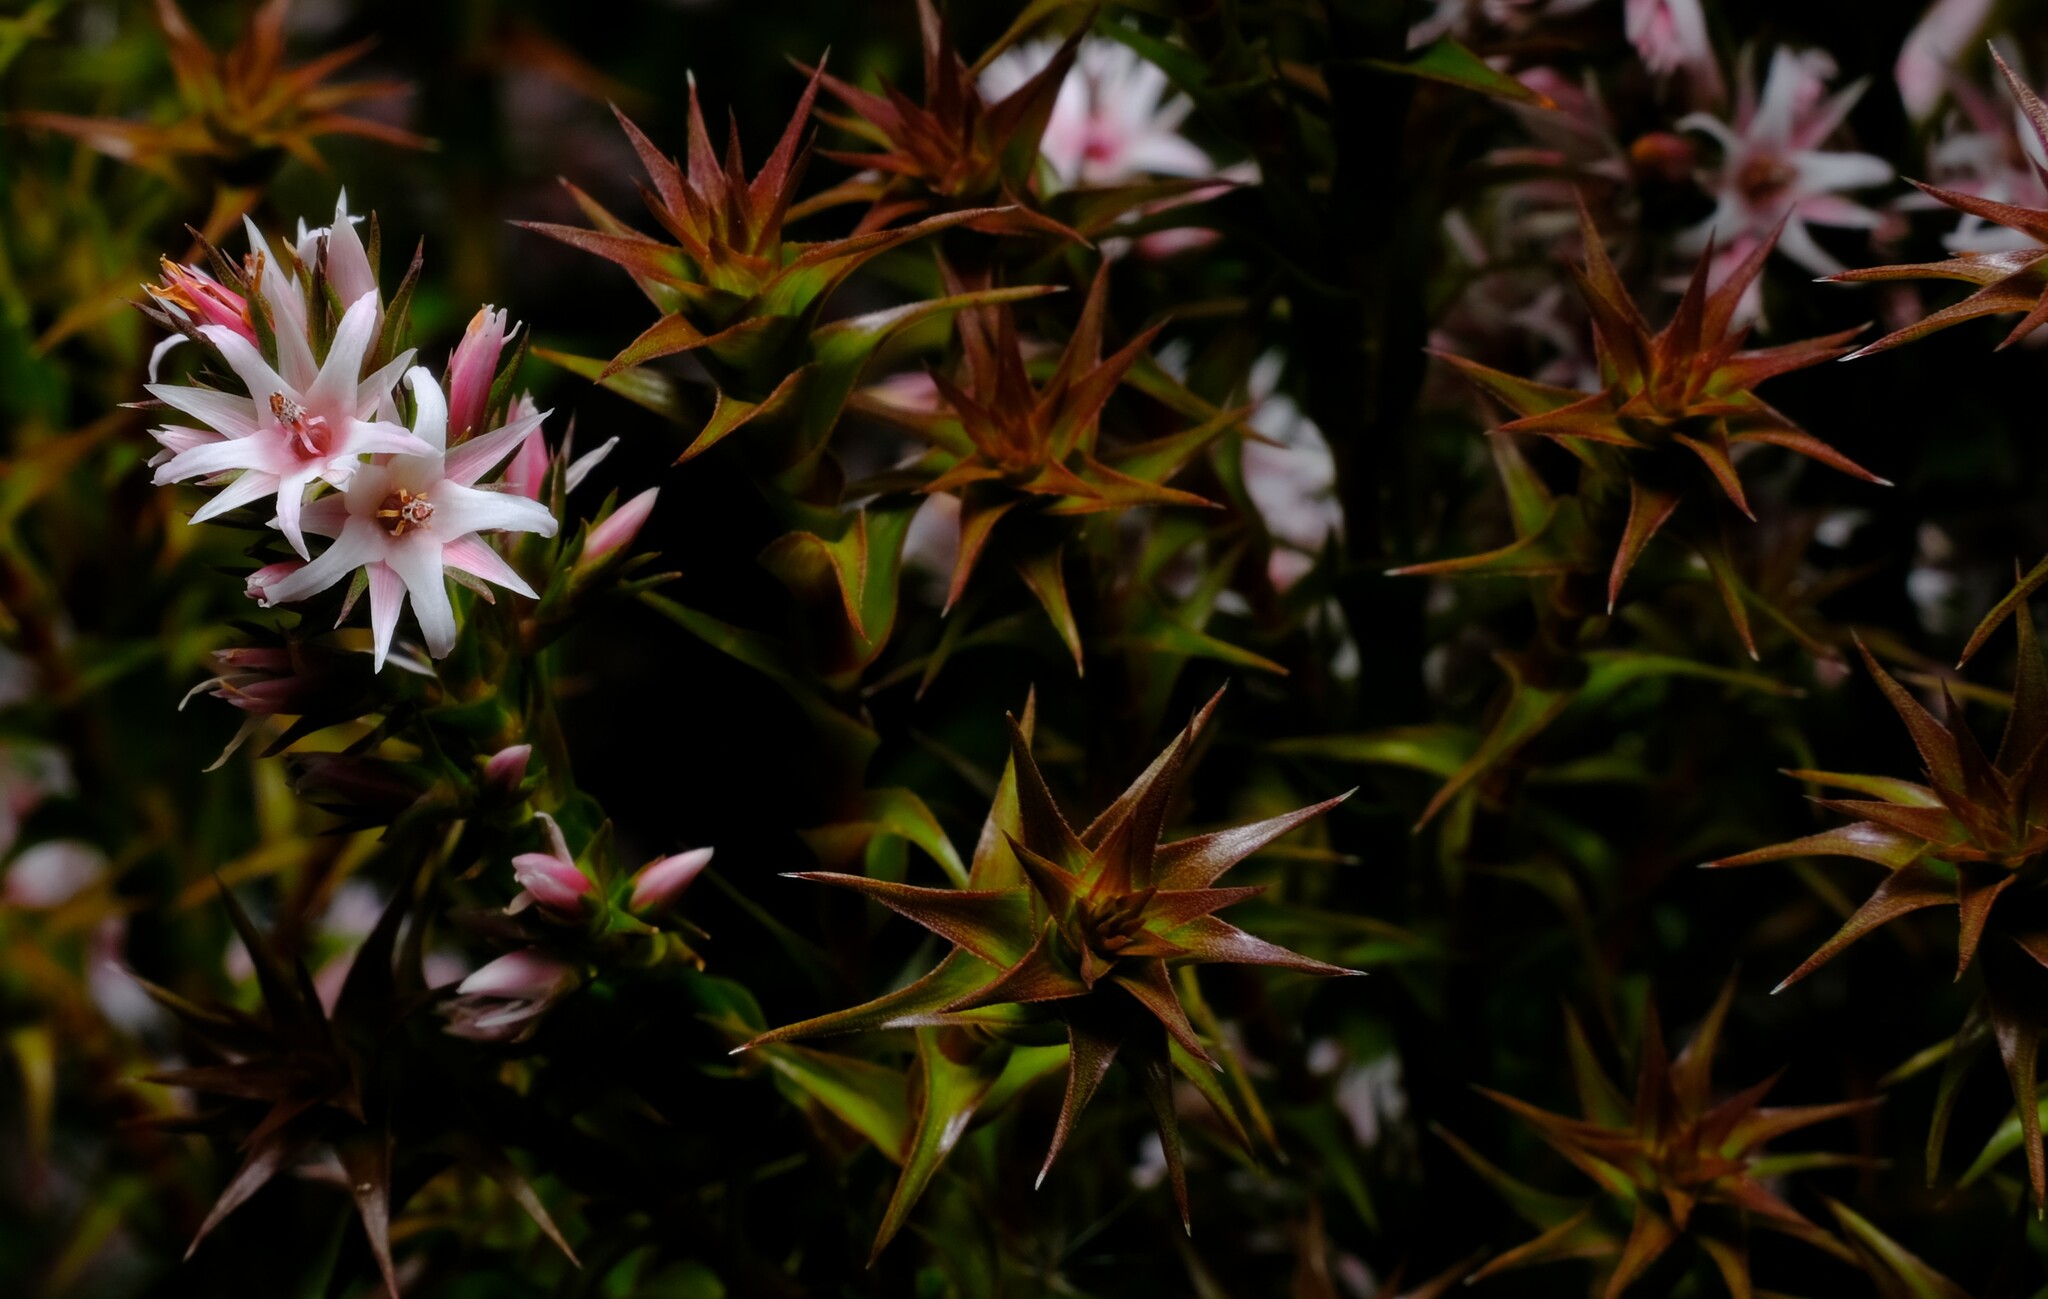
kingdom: Plantae
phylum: Tracheophyta
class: Magnoliopsida
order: Ericales
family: Ericaceae
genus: Sprengelia
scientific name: Sprengelia incarnata
